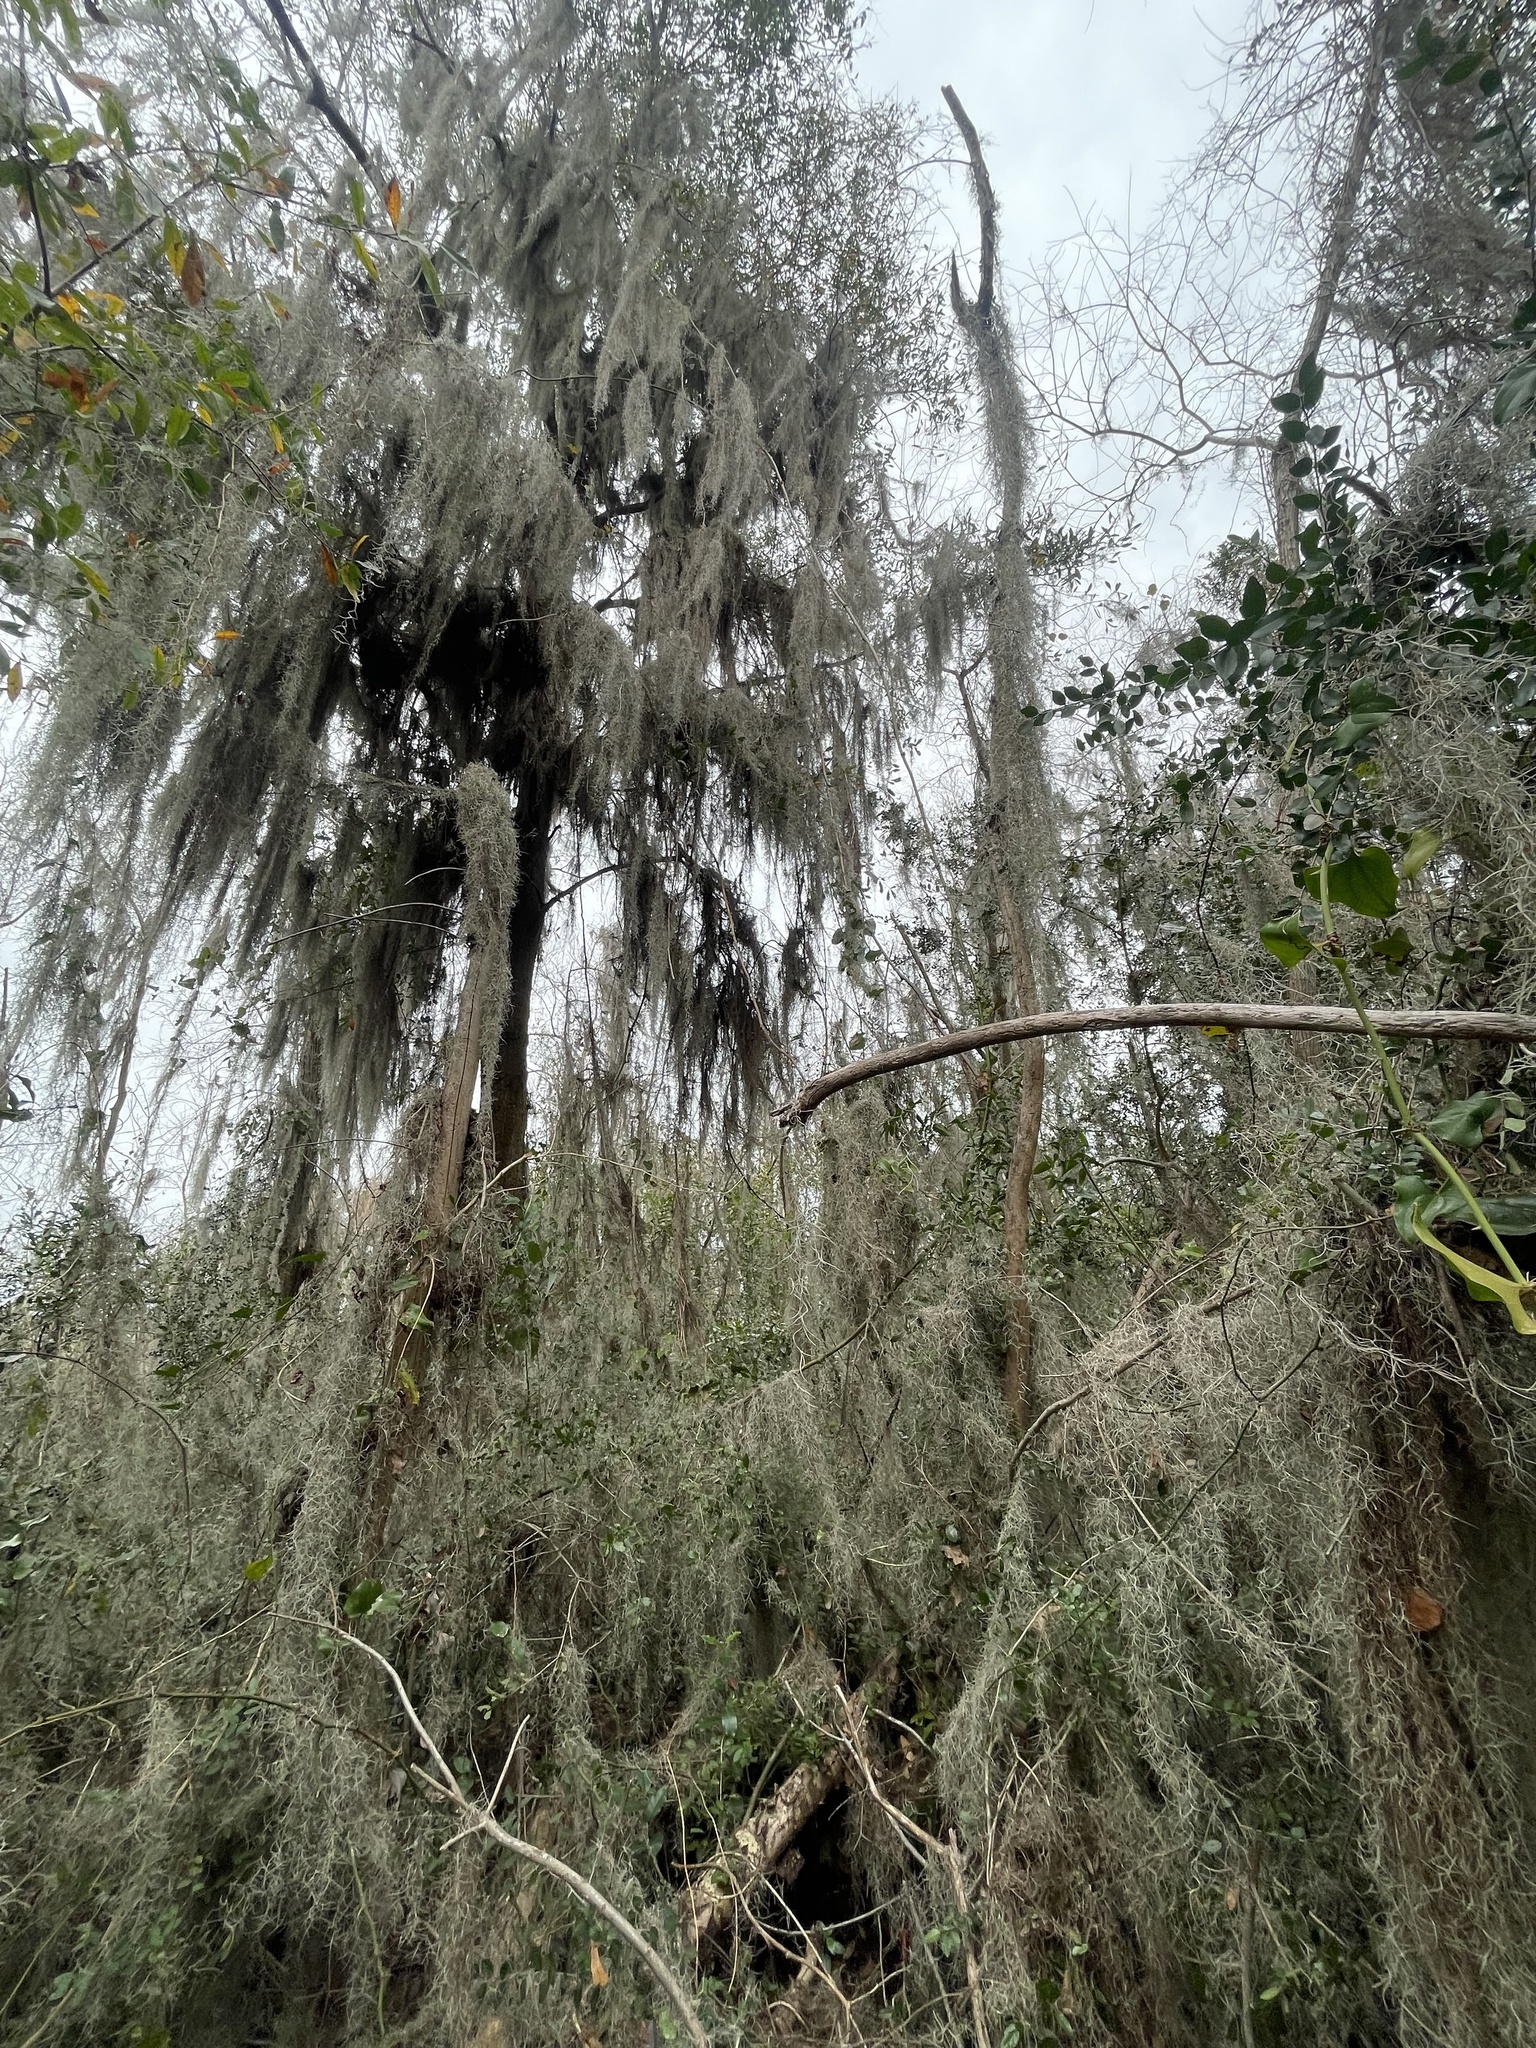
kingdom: Plantae
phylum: Tracheophyta
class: Liliopsida
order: Poales
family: Bromeliaceae
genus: Tillandsia
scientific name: Tillandsia usneoides
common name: Spanish moss
